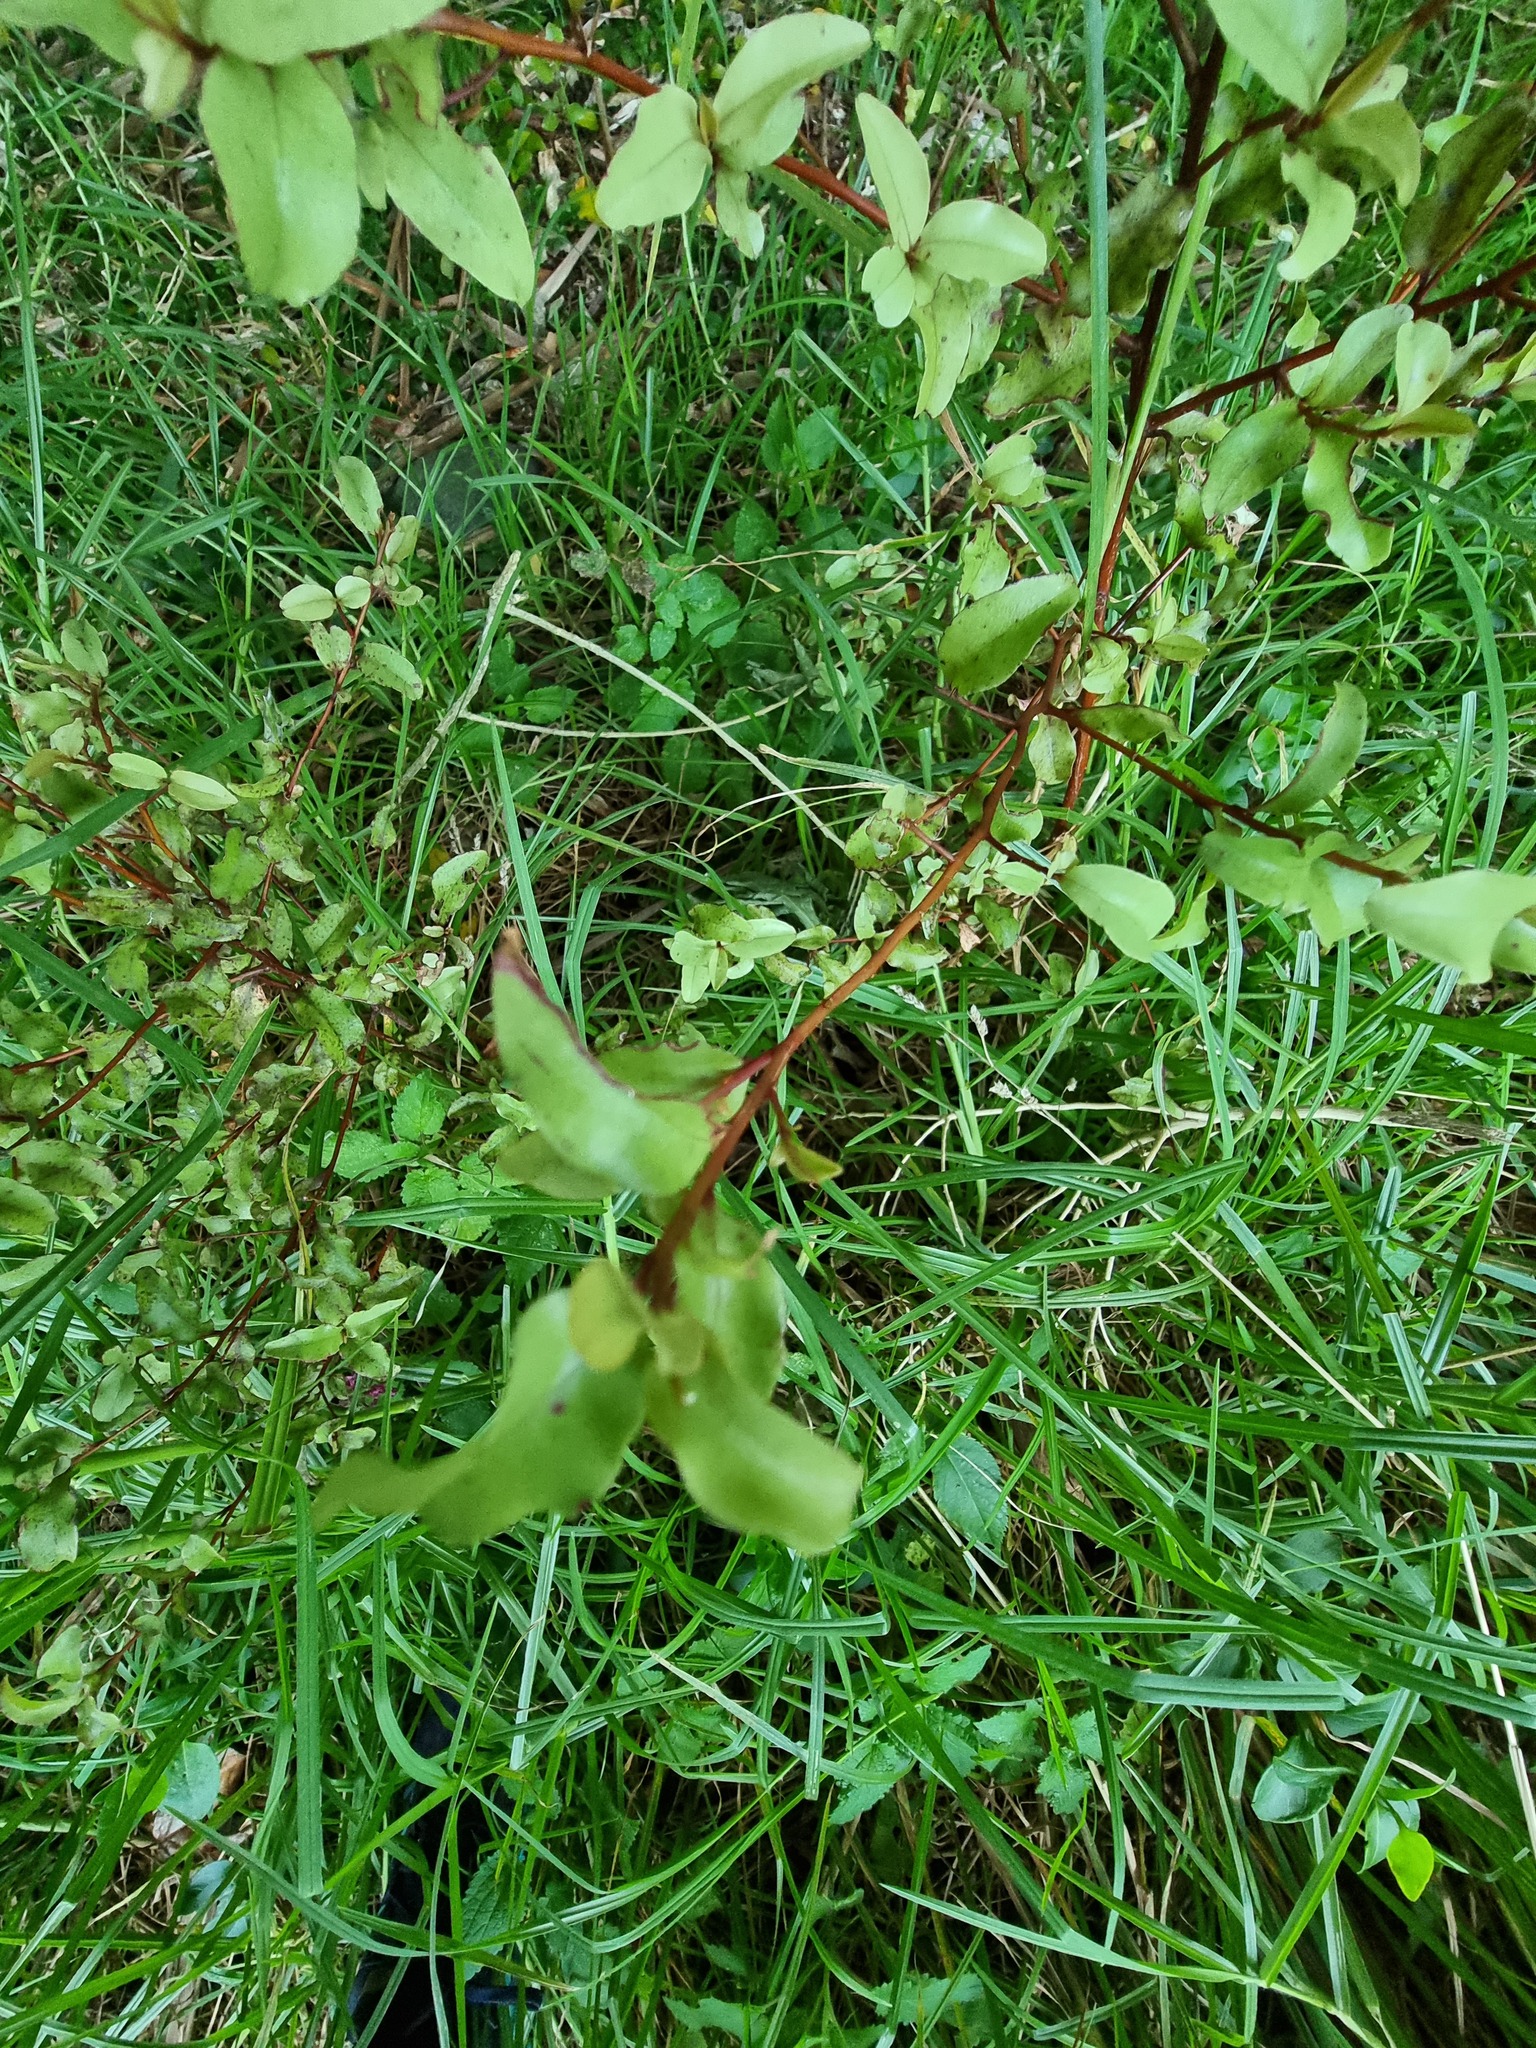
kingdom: Plantae
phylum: Tracheophyta
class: Magnoliopsida
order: Ericales
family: Primulaceae
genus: Myrsine
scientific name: Myrsine australis
